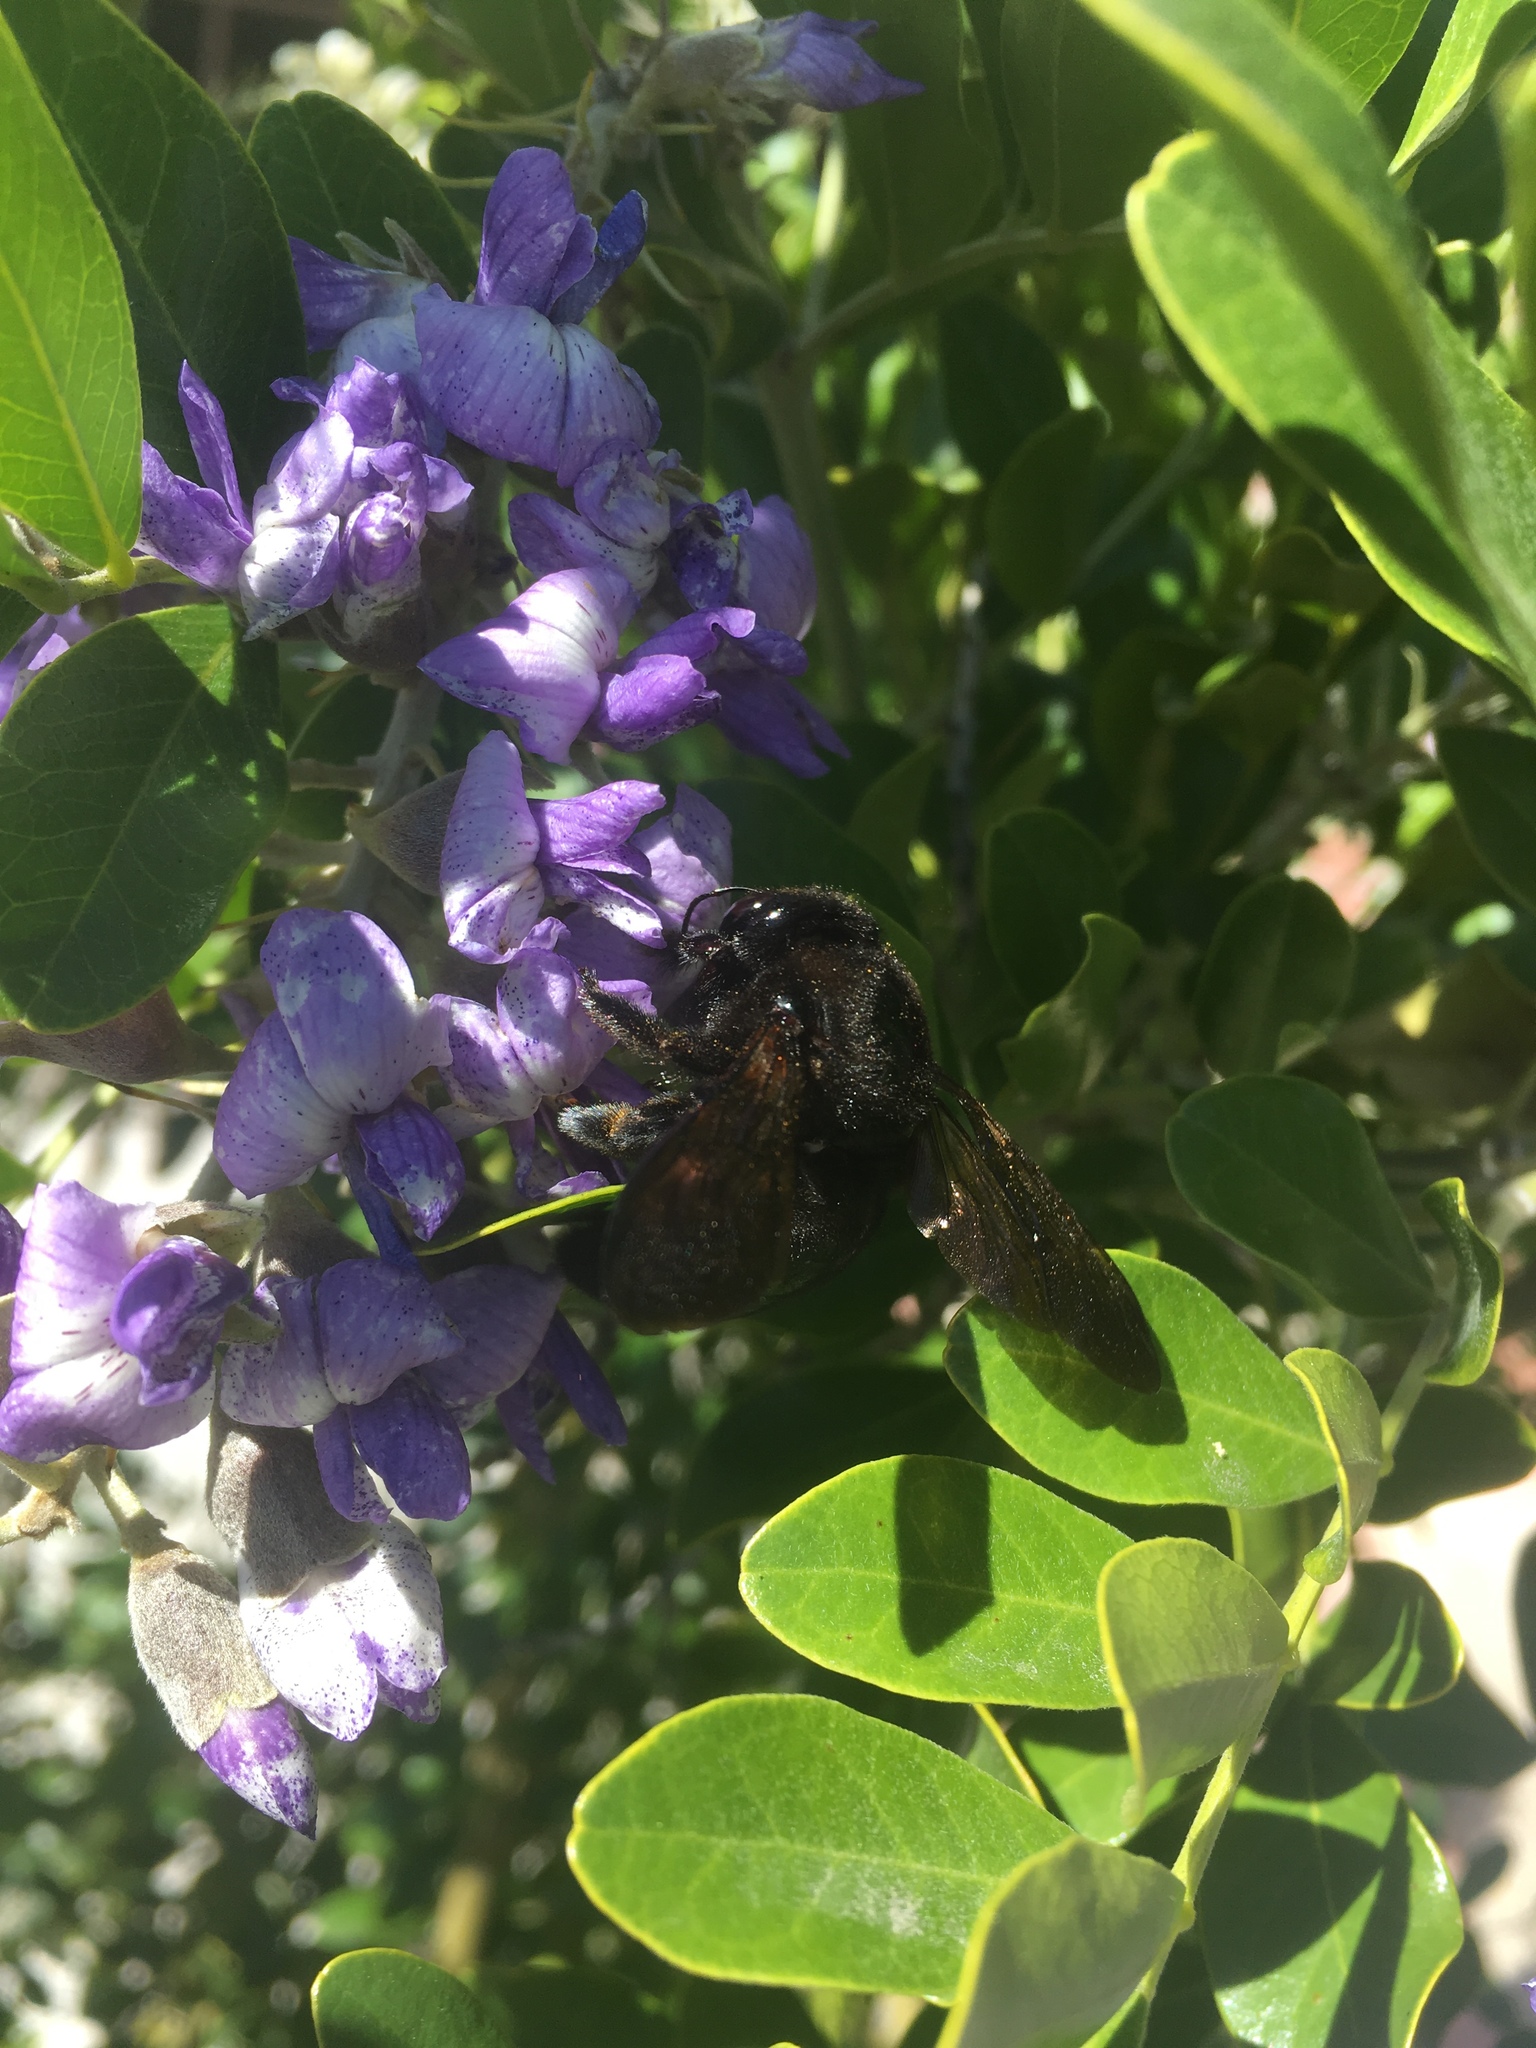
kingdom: Animalia
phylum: Arthropoda
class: Insecta
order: Hymenoptera
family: Apidae
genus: Xylocopa
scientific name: Xylocopa sonorina
